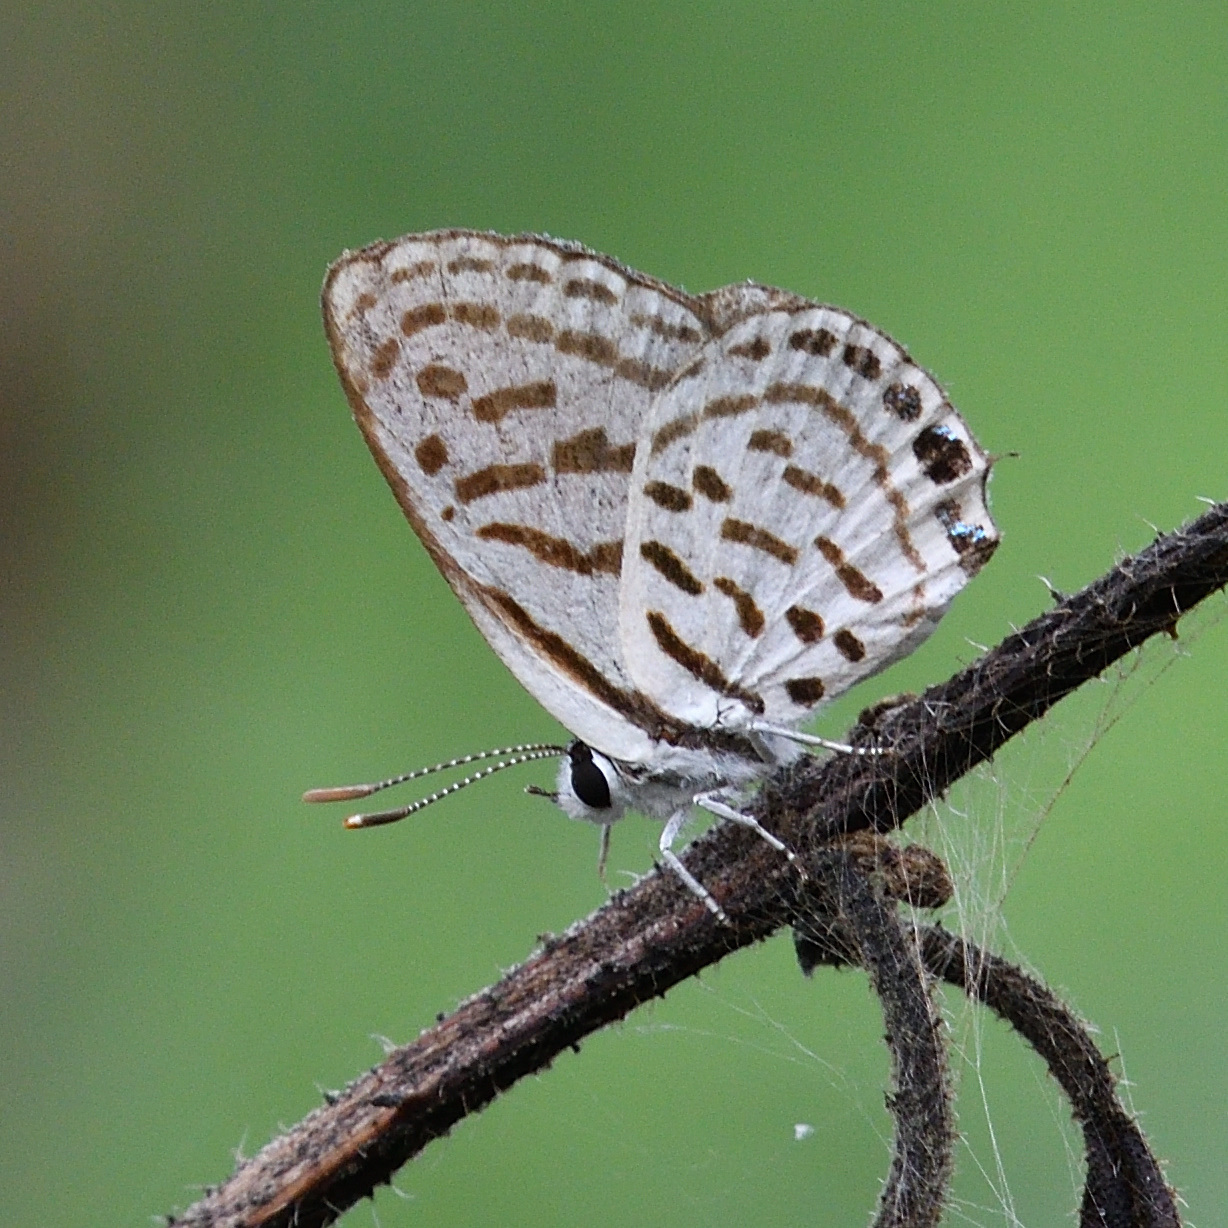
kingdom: Animalia
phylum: Arthropoda
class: Insecta
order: Lepidoptera
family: Lycaenidae
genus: Tarucus
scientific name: Tarucus nara
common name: Striped pierrot
